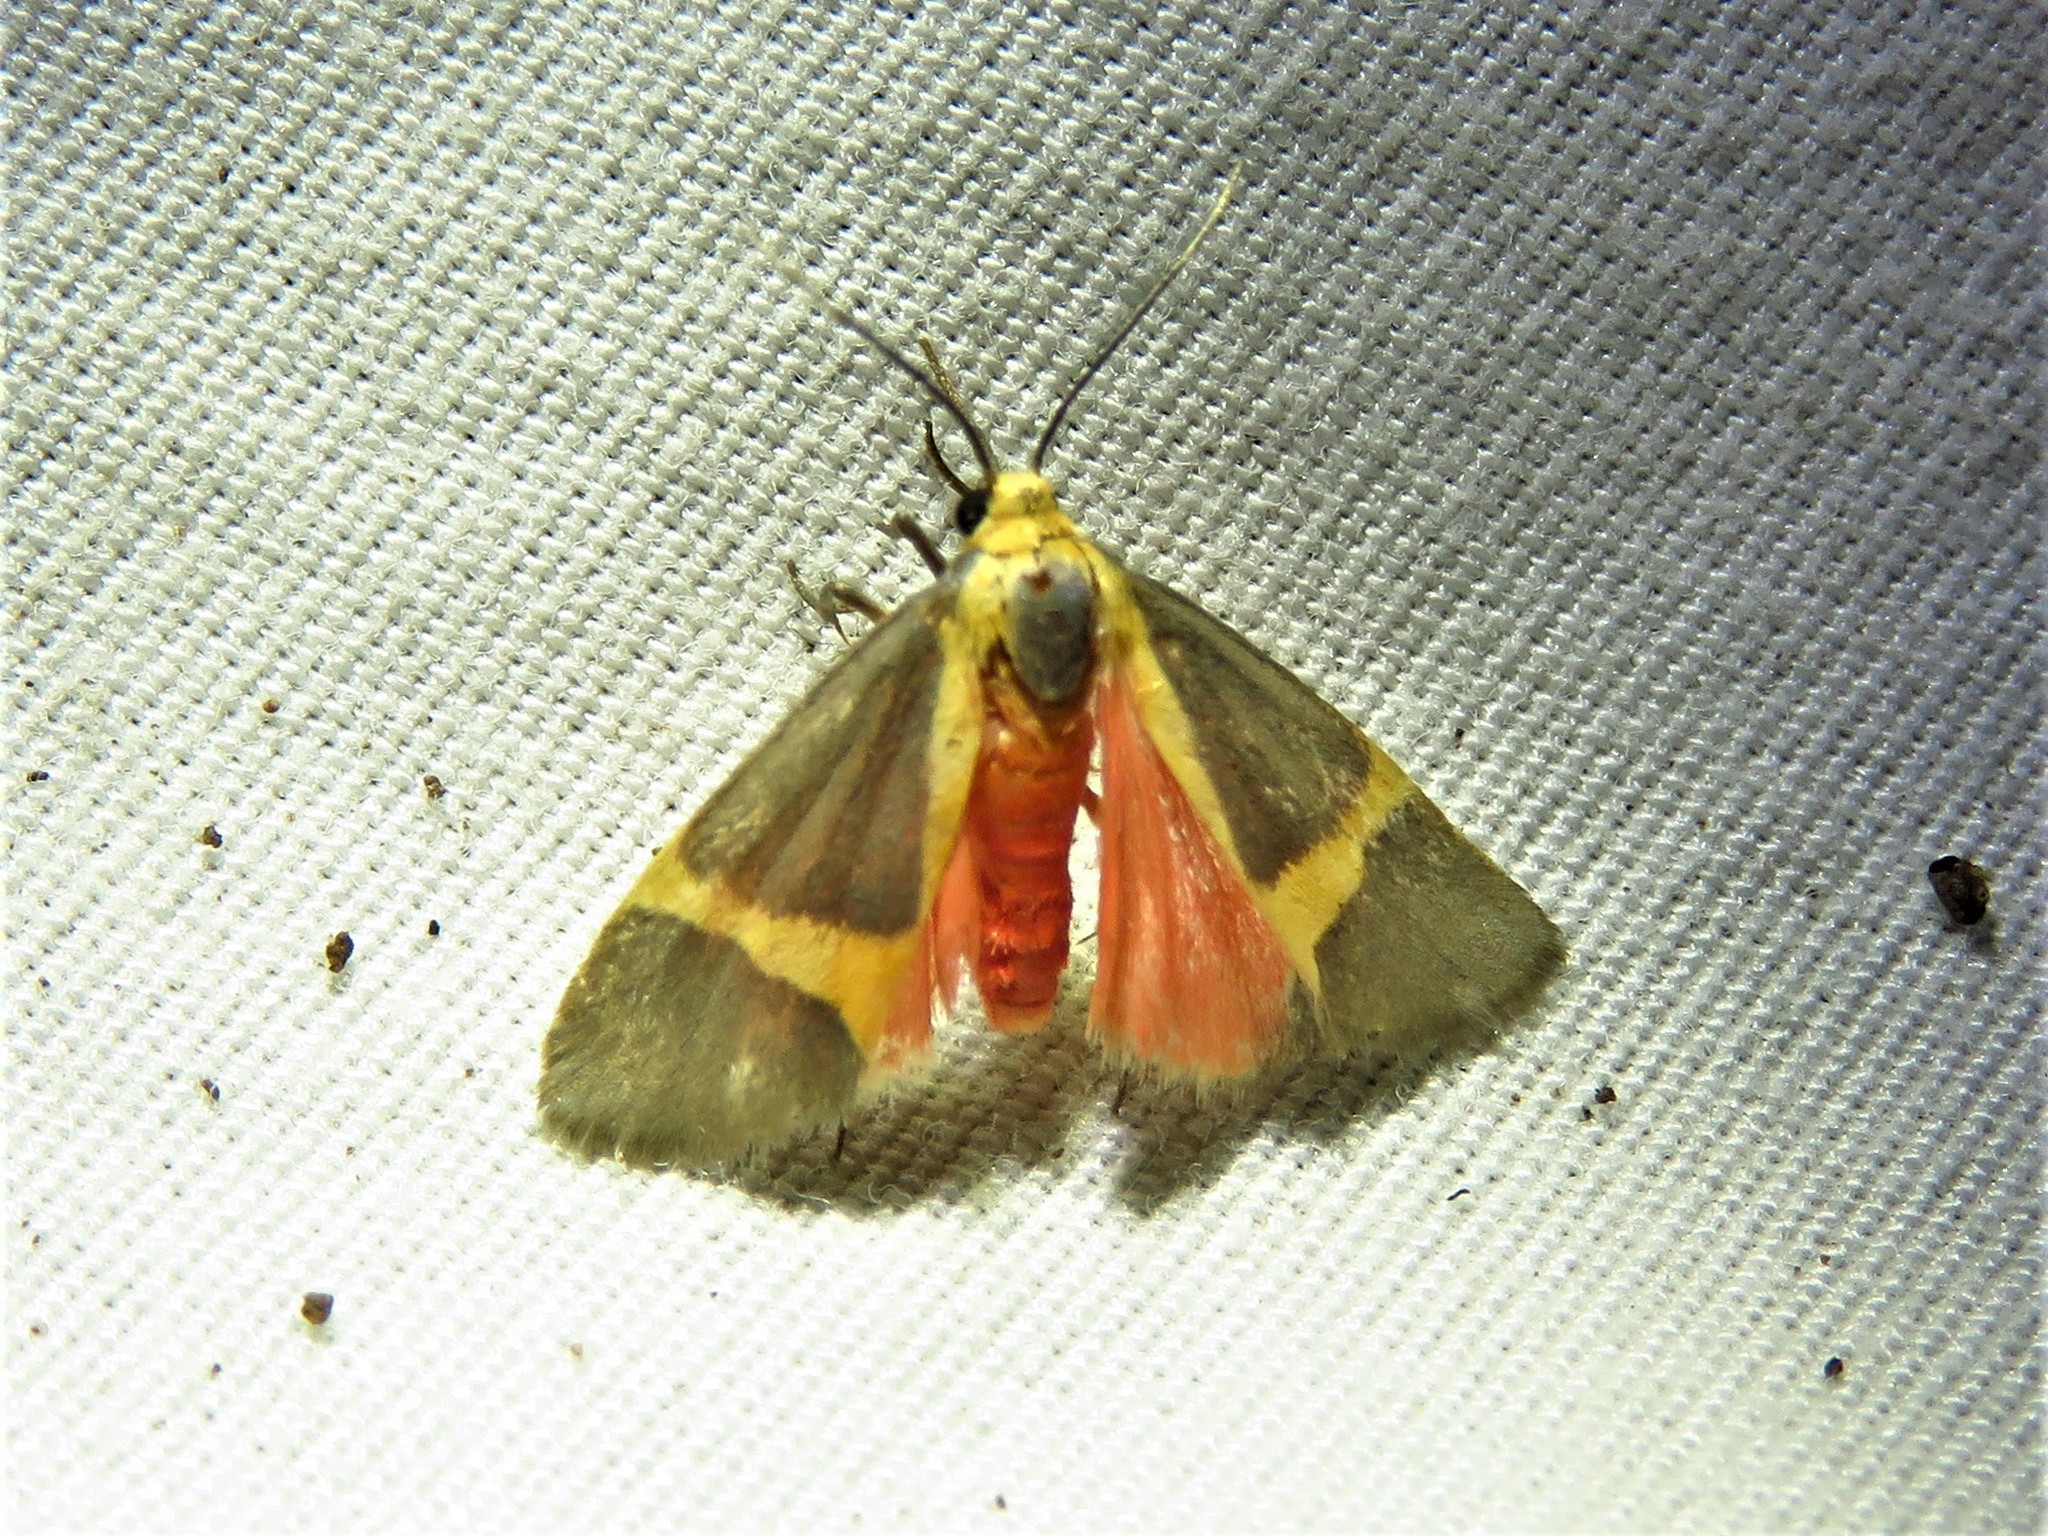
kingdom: Animalia
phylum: Arthropoda
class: Insecta
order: Lepidoptera
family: Erebidae
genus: Cisthene
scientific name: Cisthene tenuifascia
